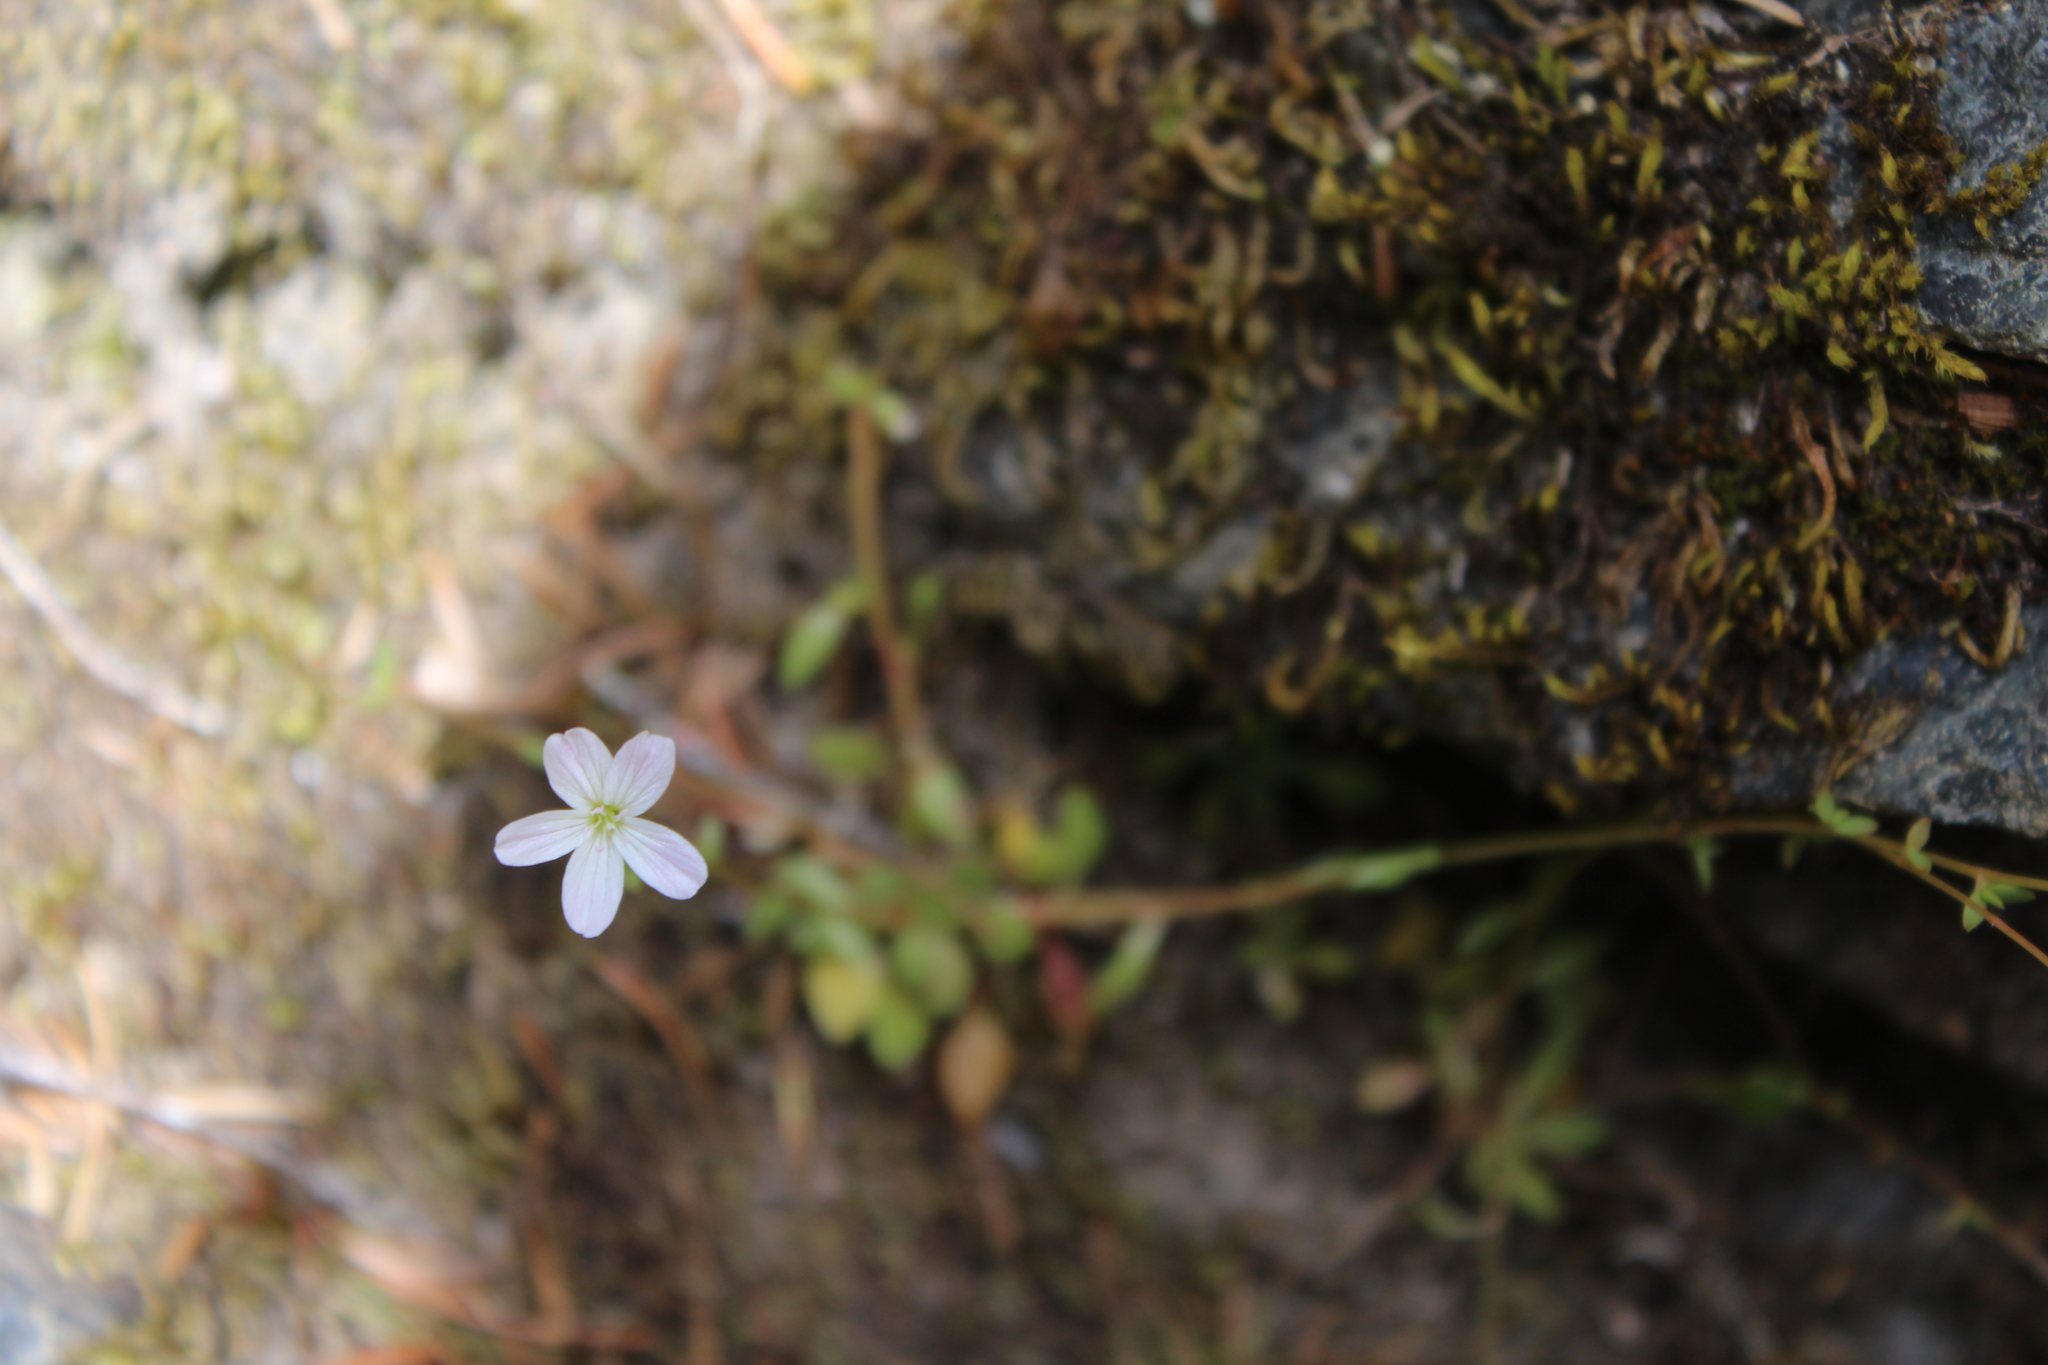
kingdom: Plantae
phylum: Tracheophyta
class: Magnoliopsida
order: Caryophyllales
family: Montiaceae
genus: Montia
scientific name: Montia parvifolia
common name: Small-leaved blinks
